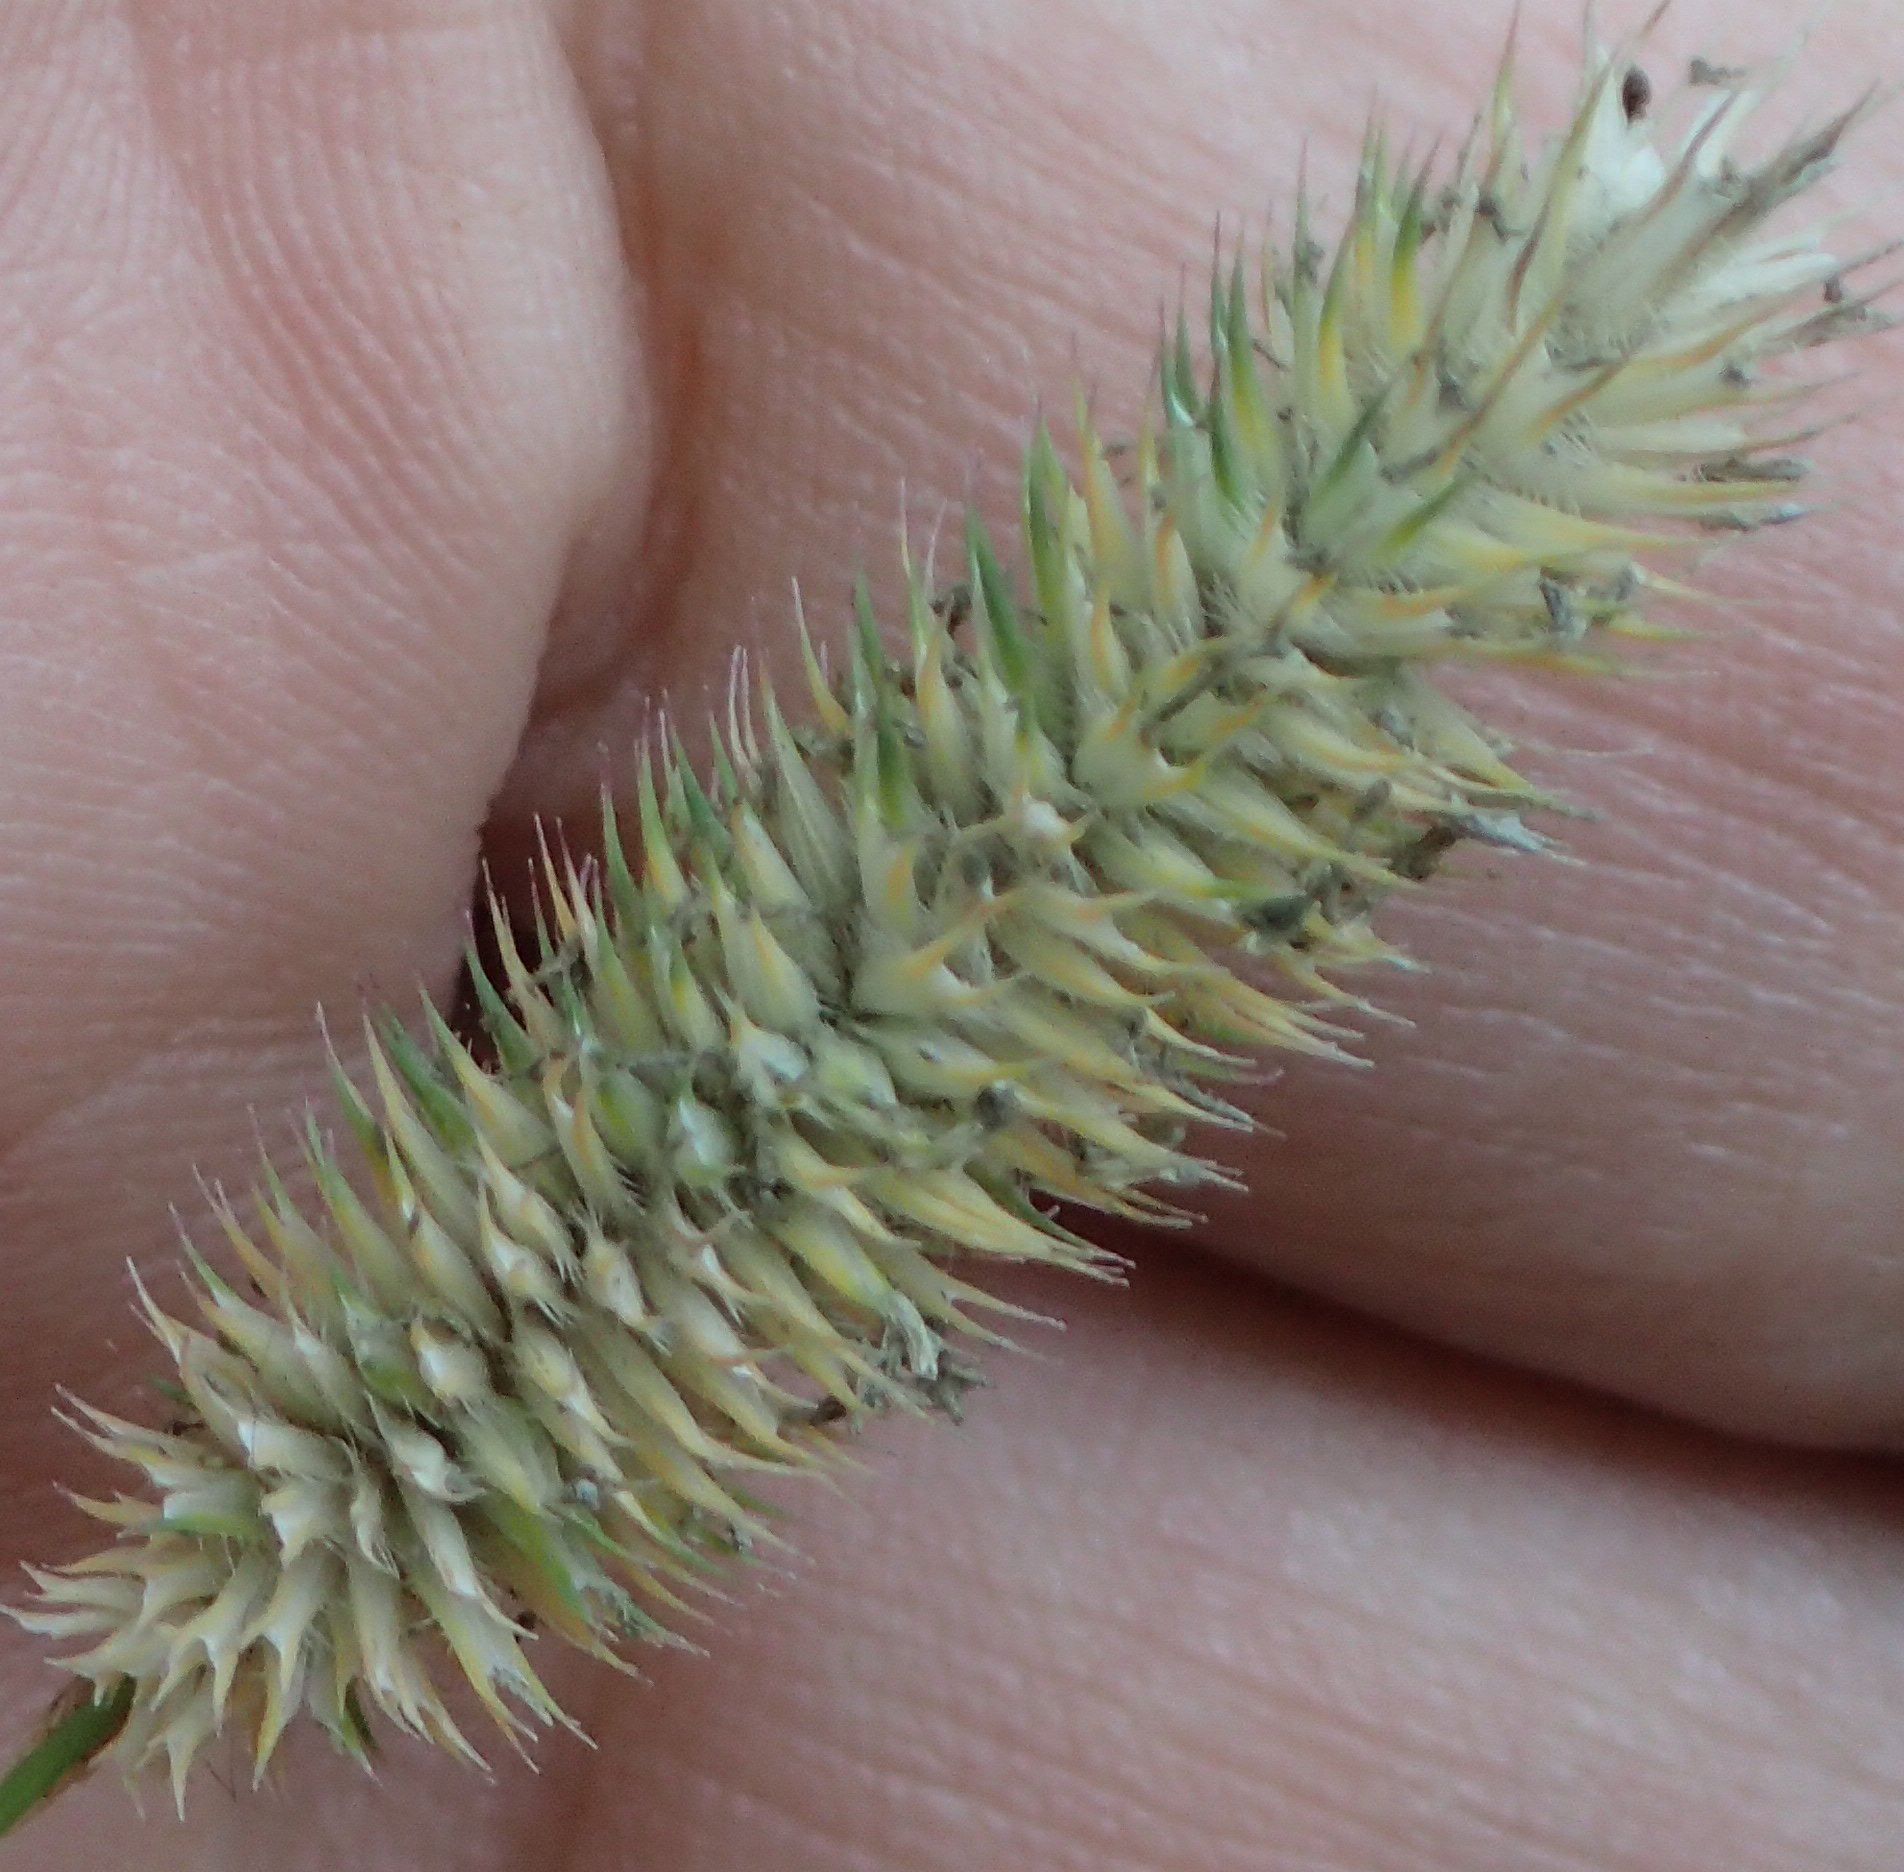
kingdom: Plantae
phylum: Tracheophyta
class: Liliopsida
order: Poales
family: Poaceae
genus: Phleum
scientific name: Phleum pratense
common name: Timothy grass
